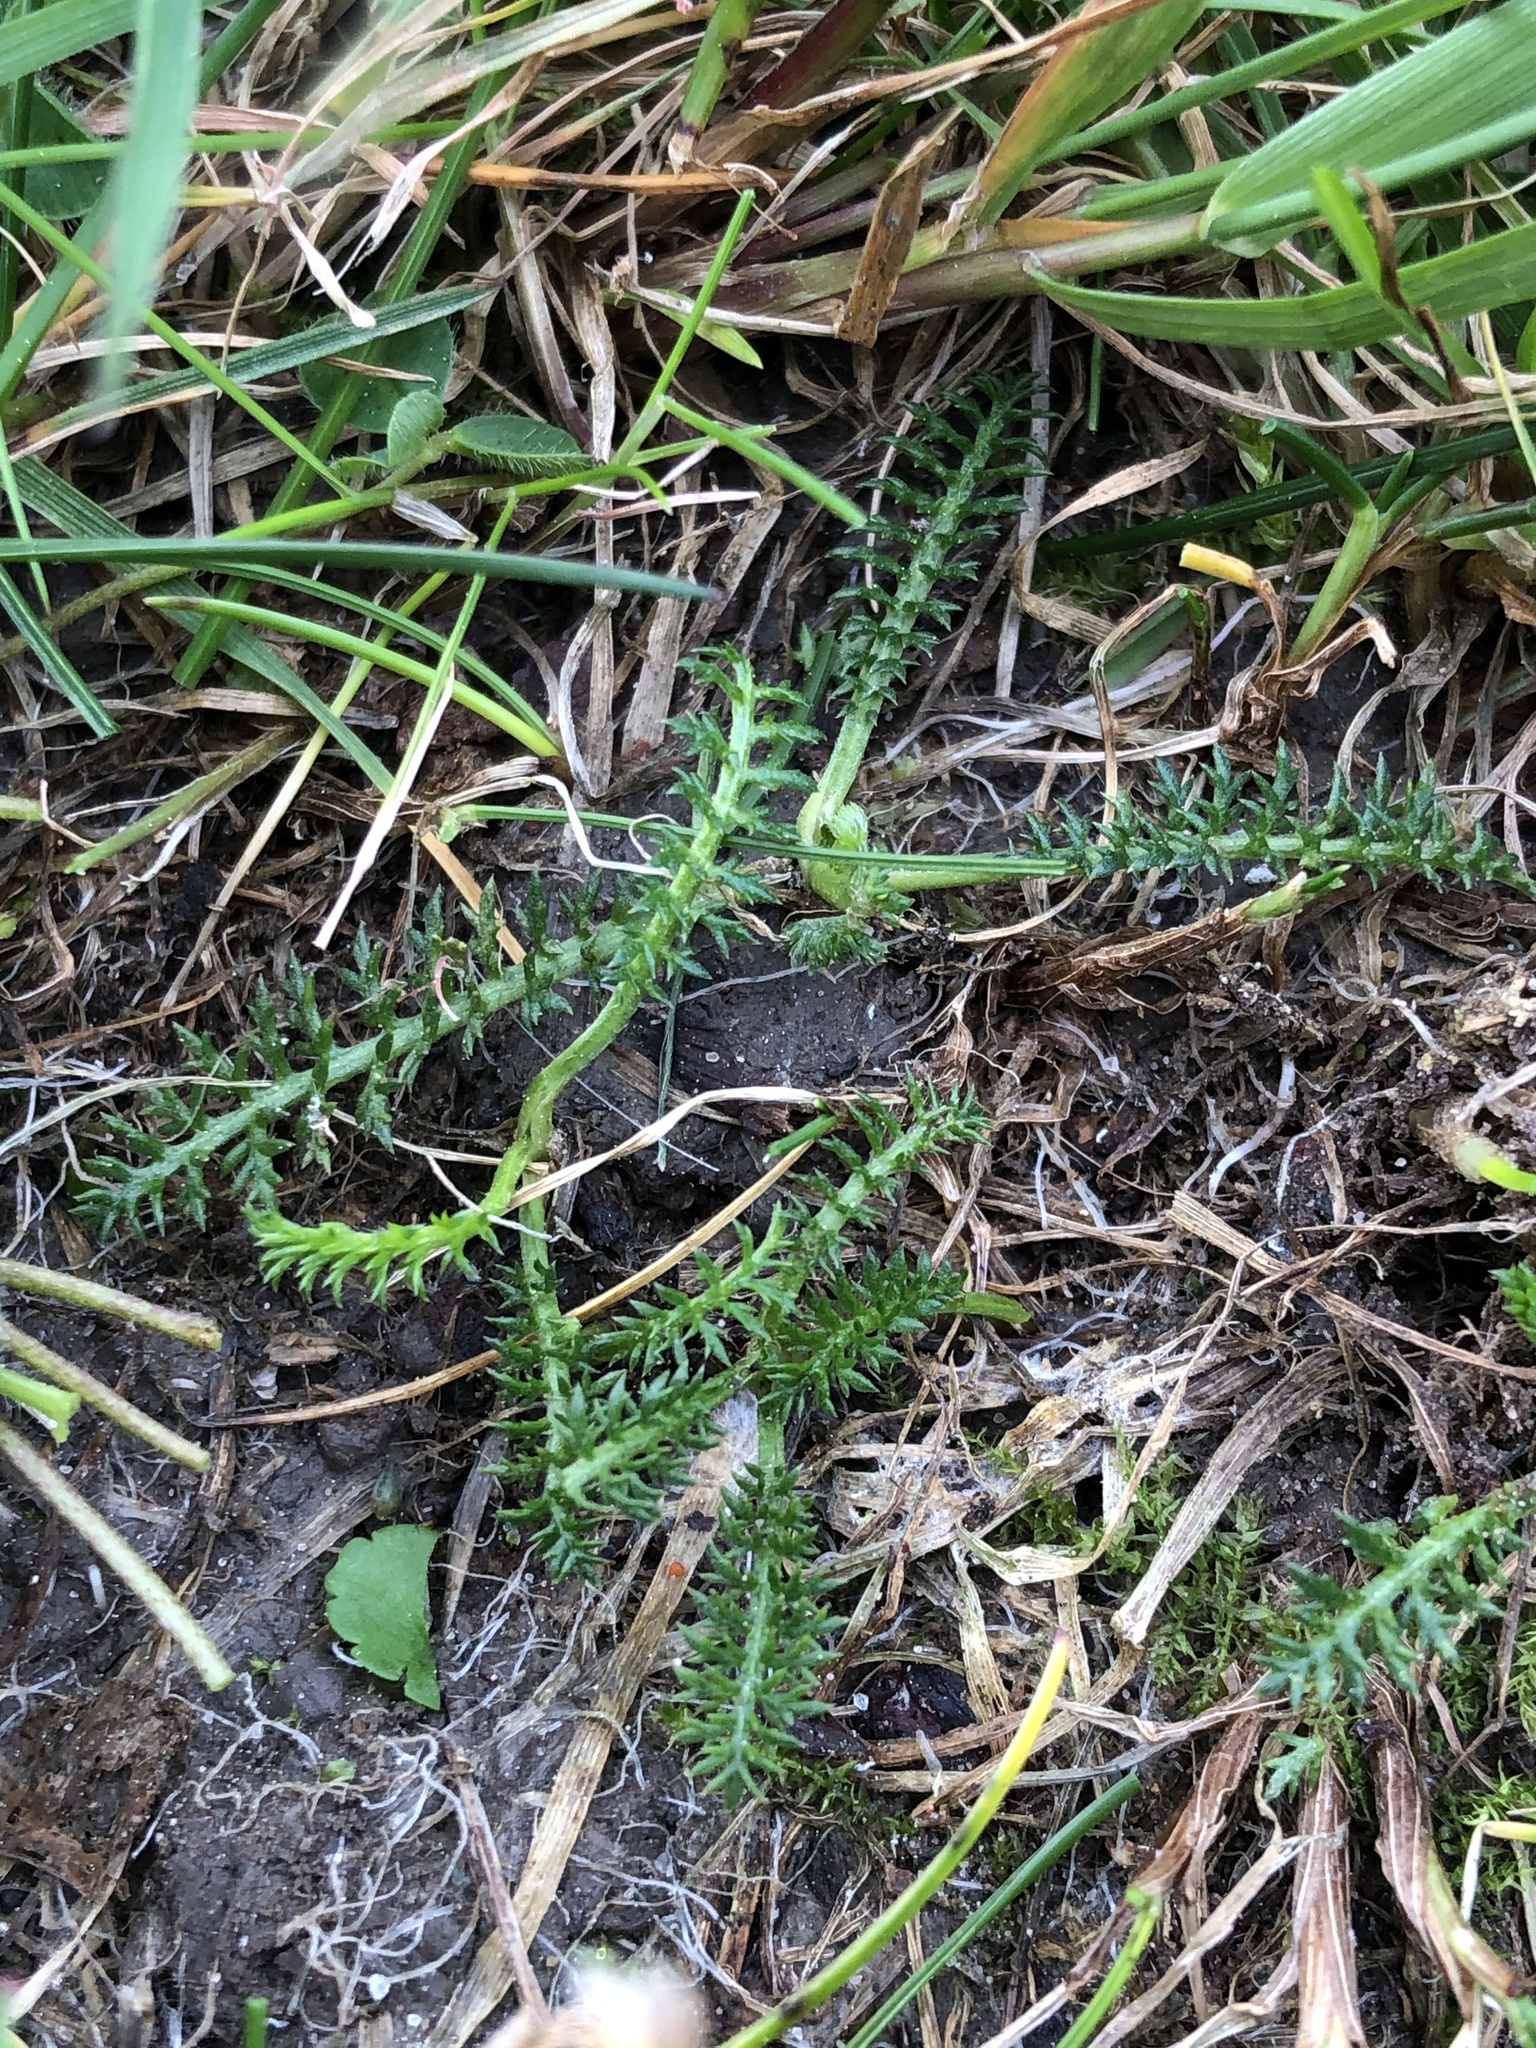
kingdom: Plantae
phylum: Tracheophyta
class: Magnoliopsida
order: Asterales
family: Asteraceae
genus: Achillea
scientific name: Achillea millefolium
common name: Yarrow
